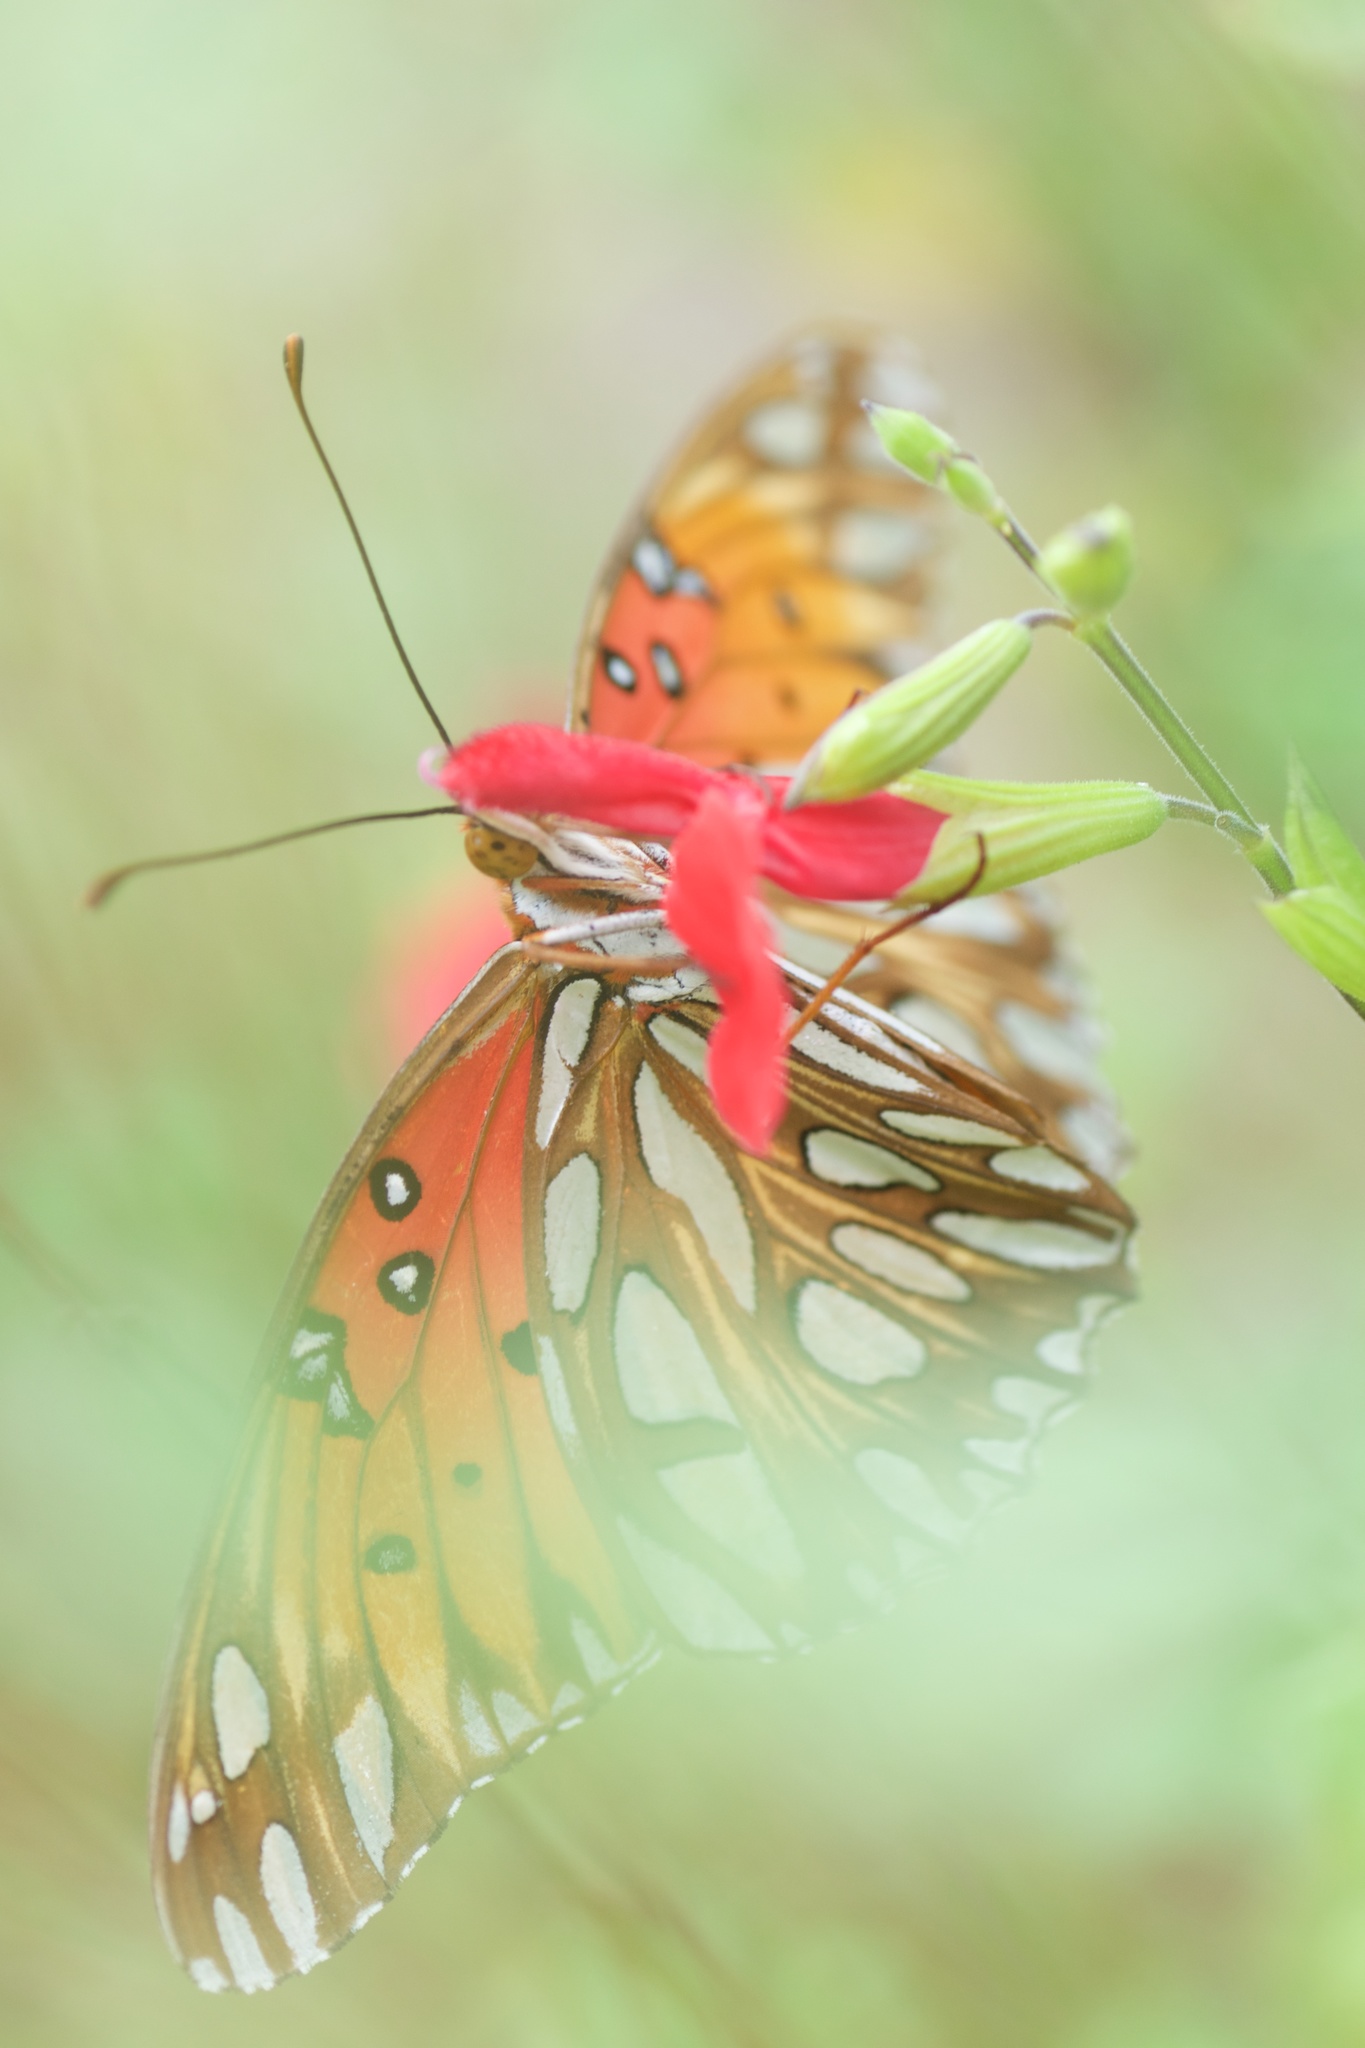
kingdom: Animalia
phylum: Arthropoda
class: Insecta
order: Lepidoptera
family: Nymphalidae
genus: Dione
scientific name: Dione vanillae
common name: Gulf fritillary
